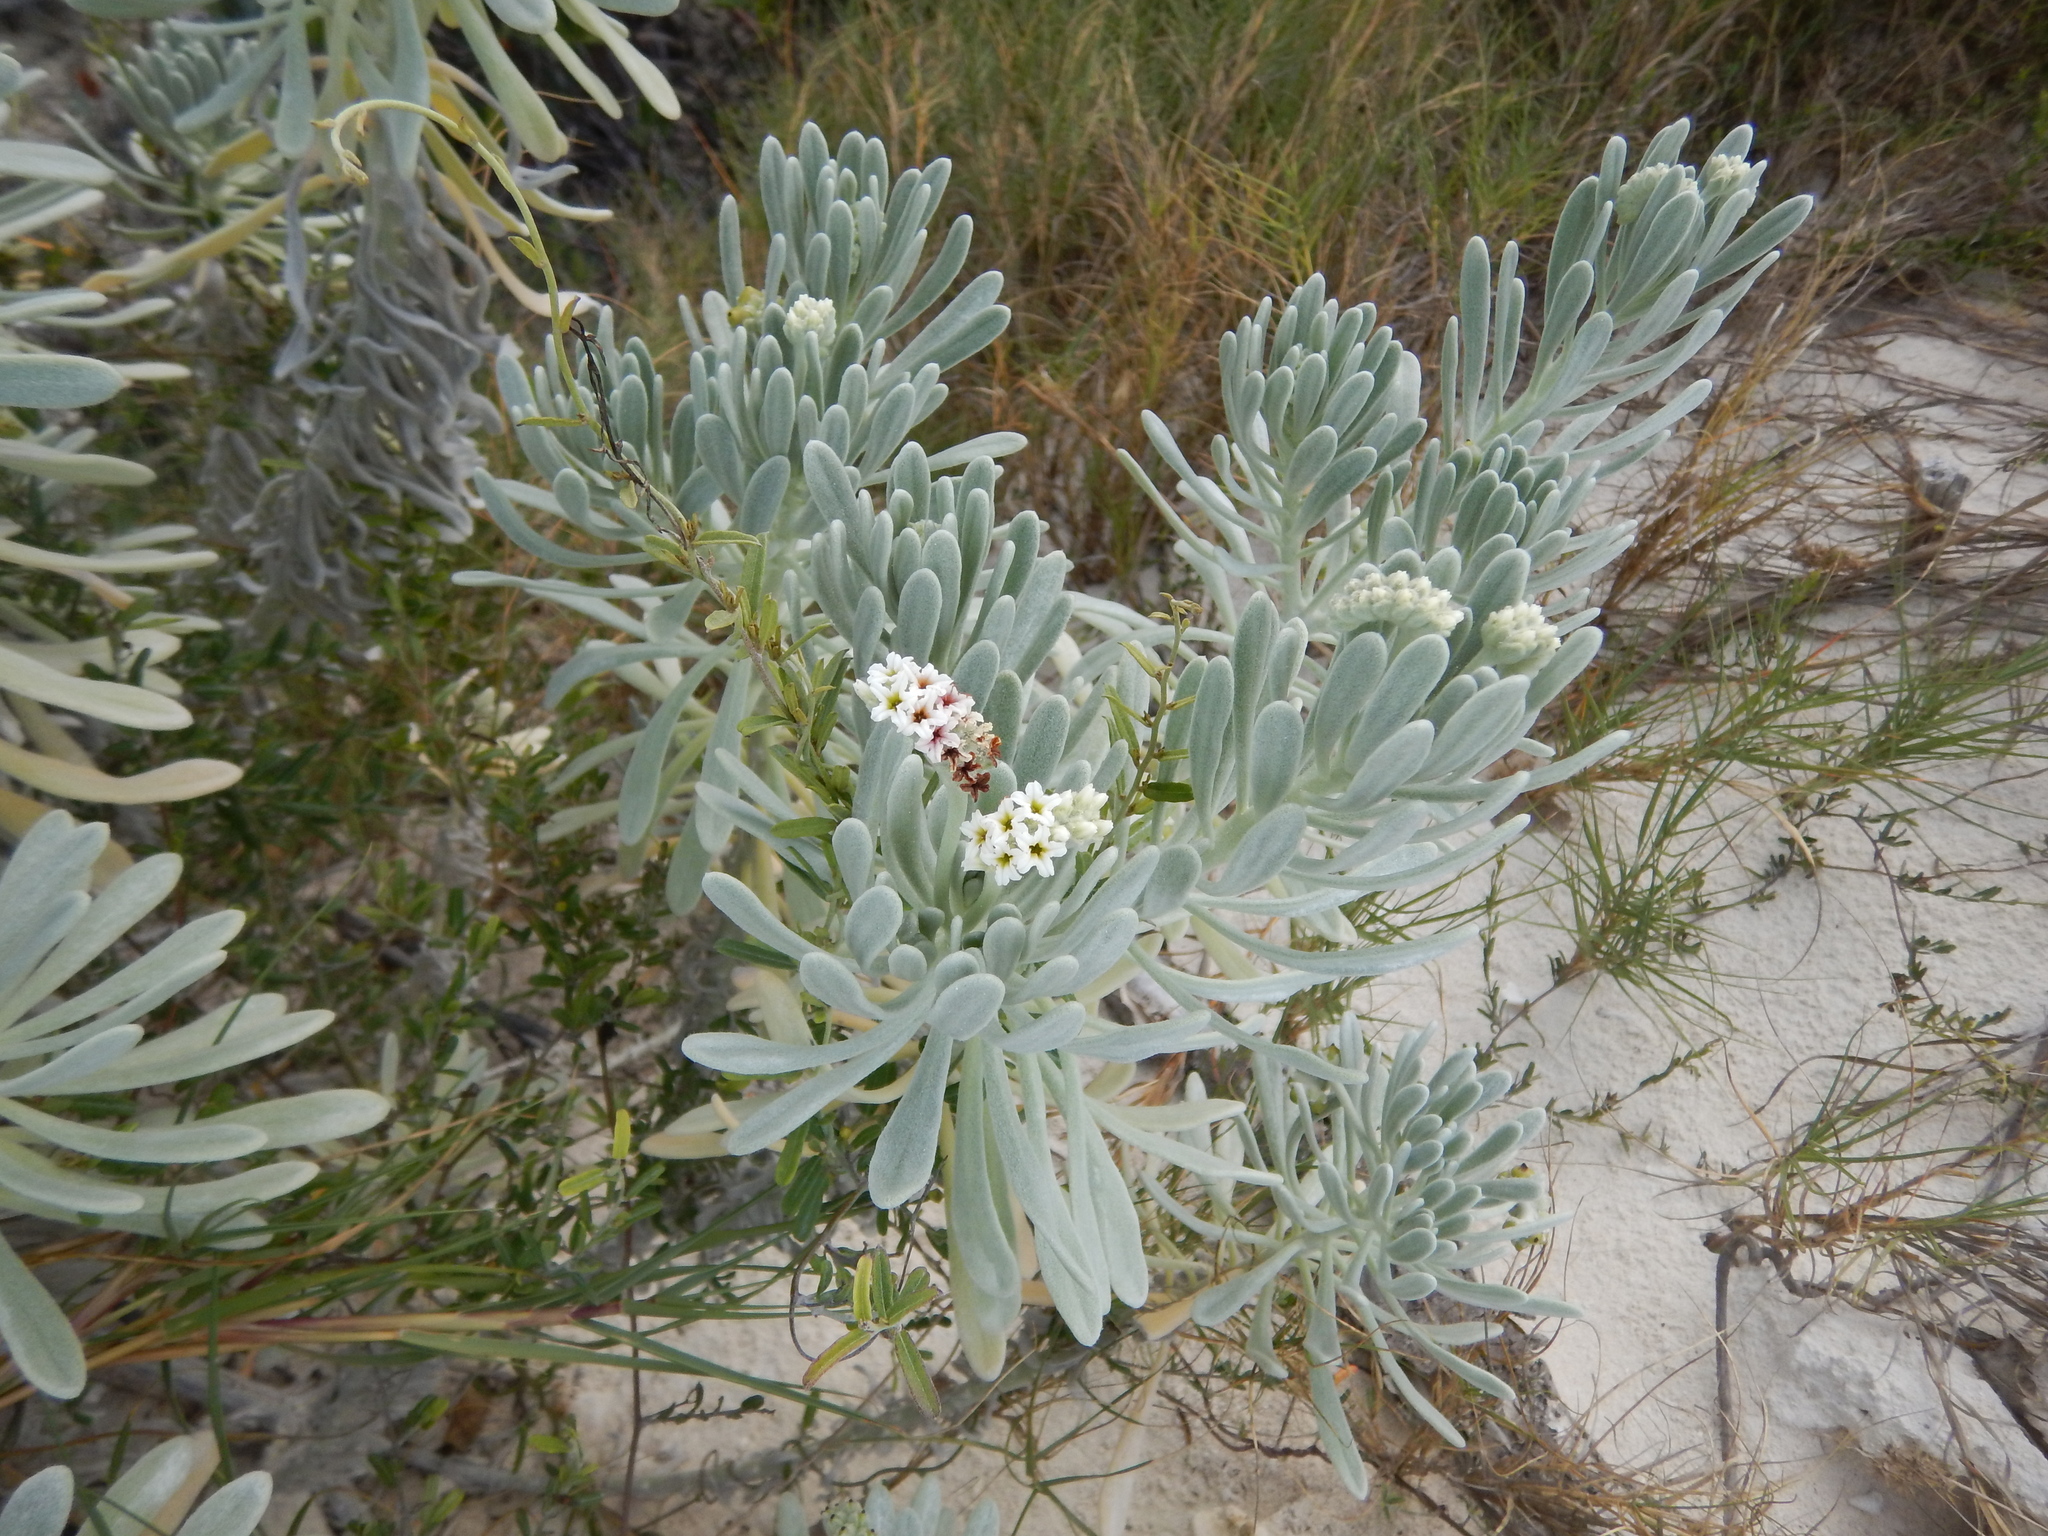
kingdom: Plantae
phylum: Tracheophyta
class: Magnoliopsida
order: Boraginales
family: Heliotropiaceae
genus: Tournefortia
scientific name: Tournefortia gnaphalodes
